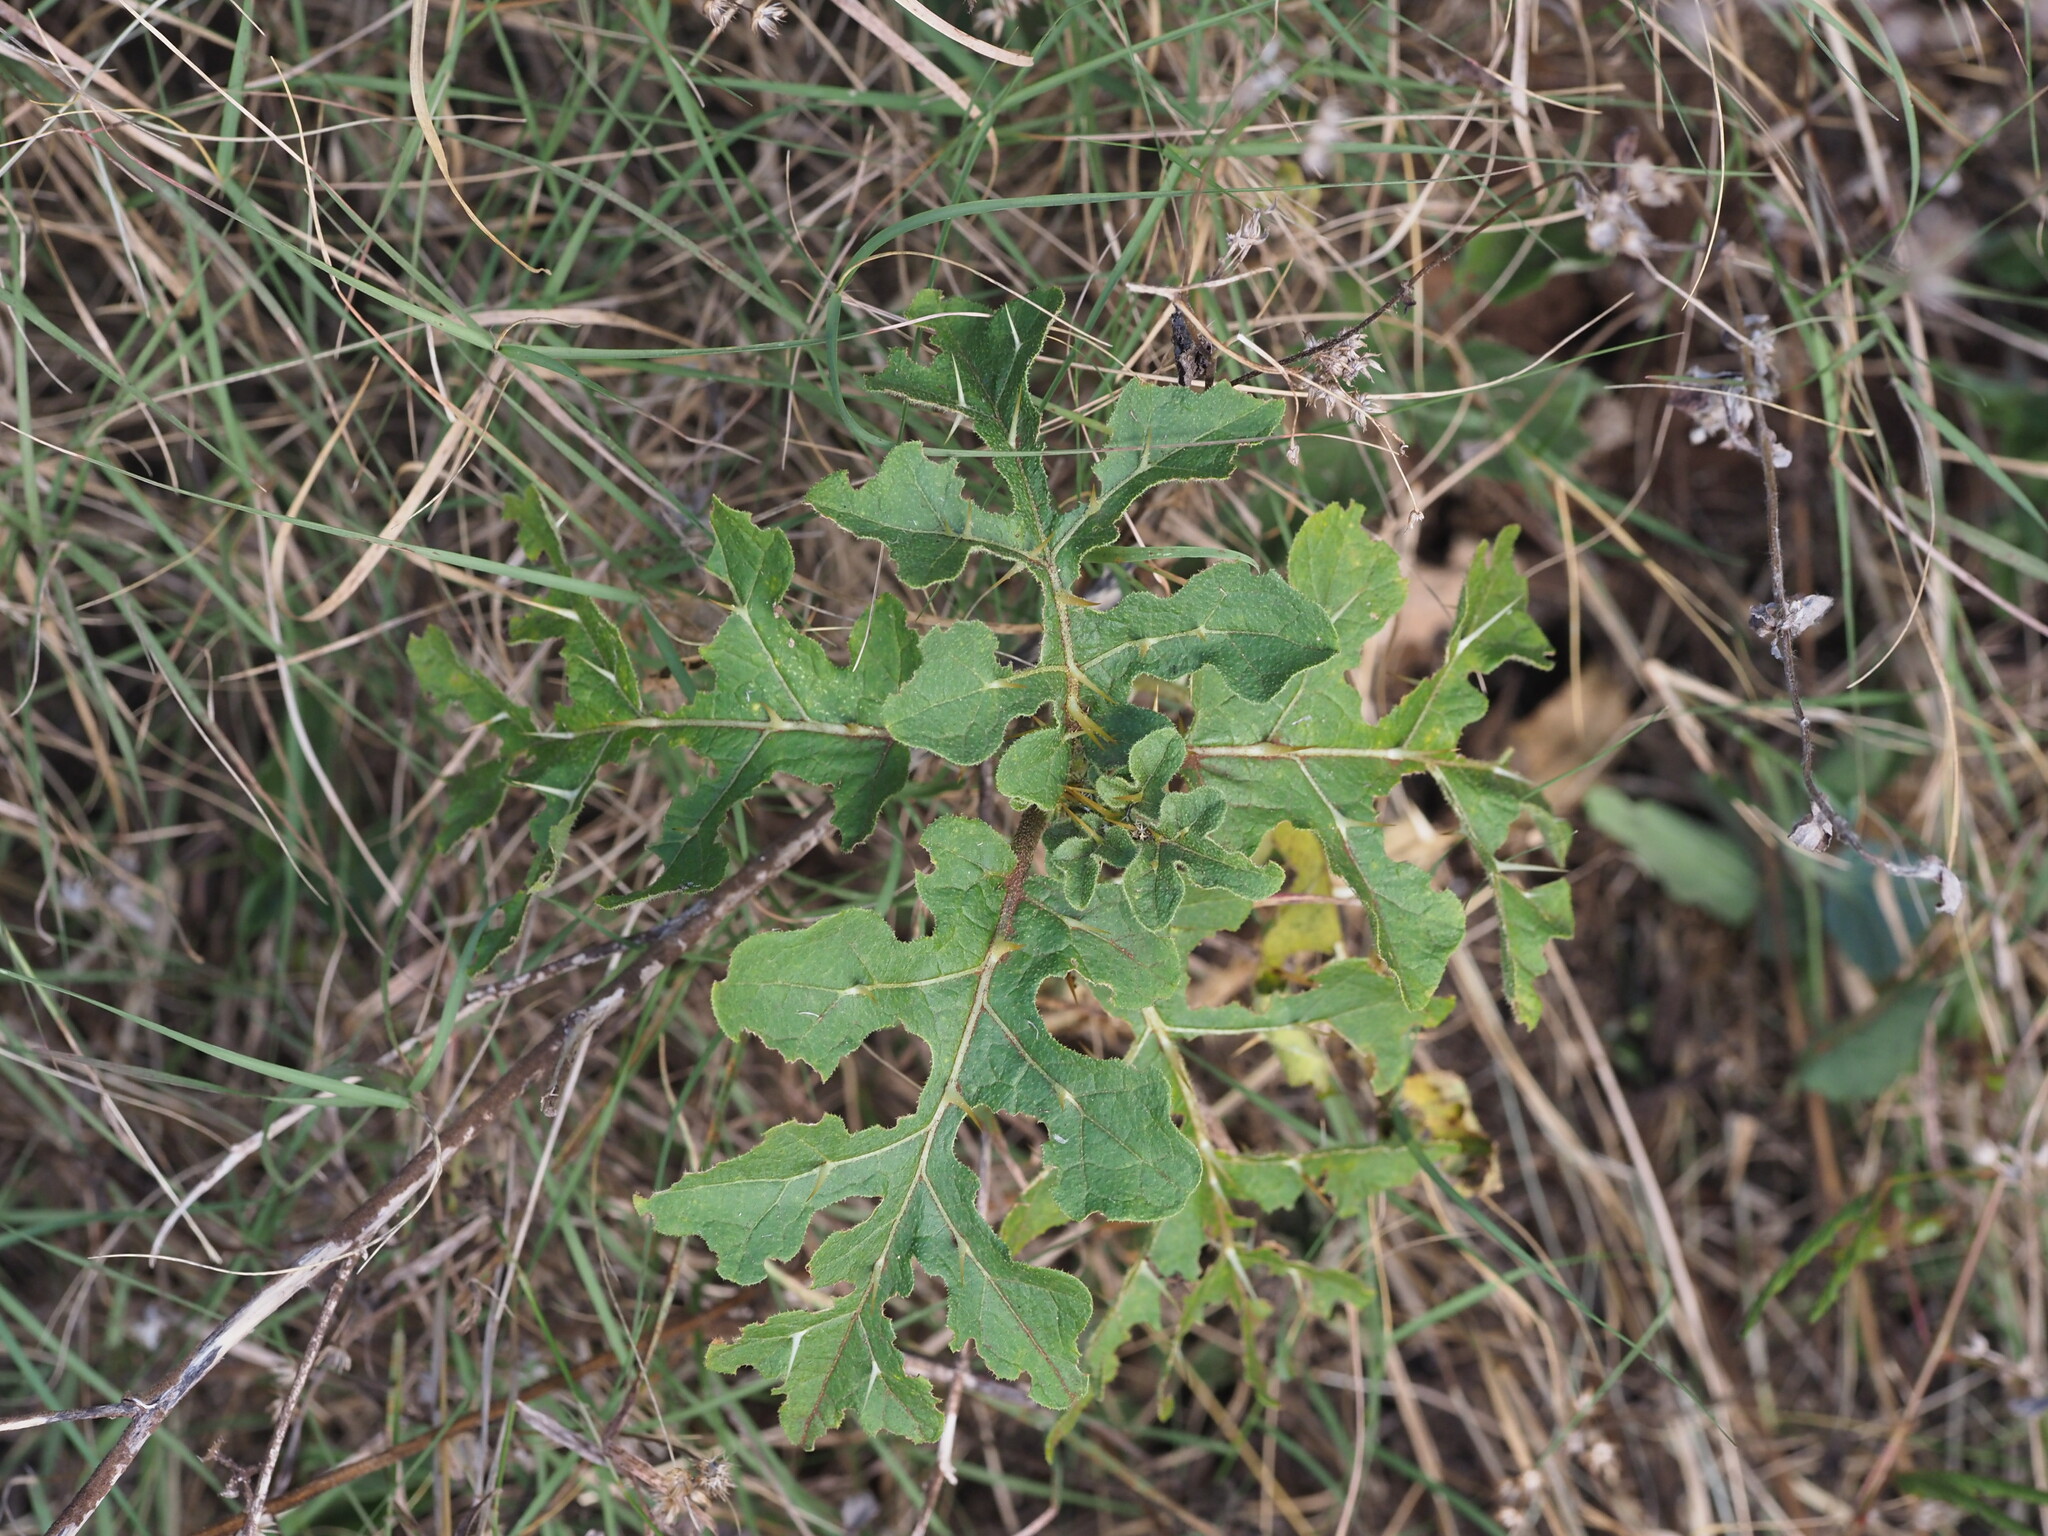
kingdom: Plantae
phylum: Tracheophyta
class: Magnoliopsida
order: Solanales
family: Solanaceae
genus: Solanum
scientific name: Solanum linnaeanum
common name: Nightshade
